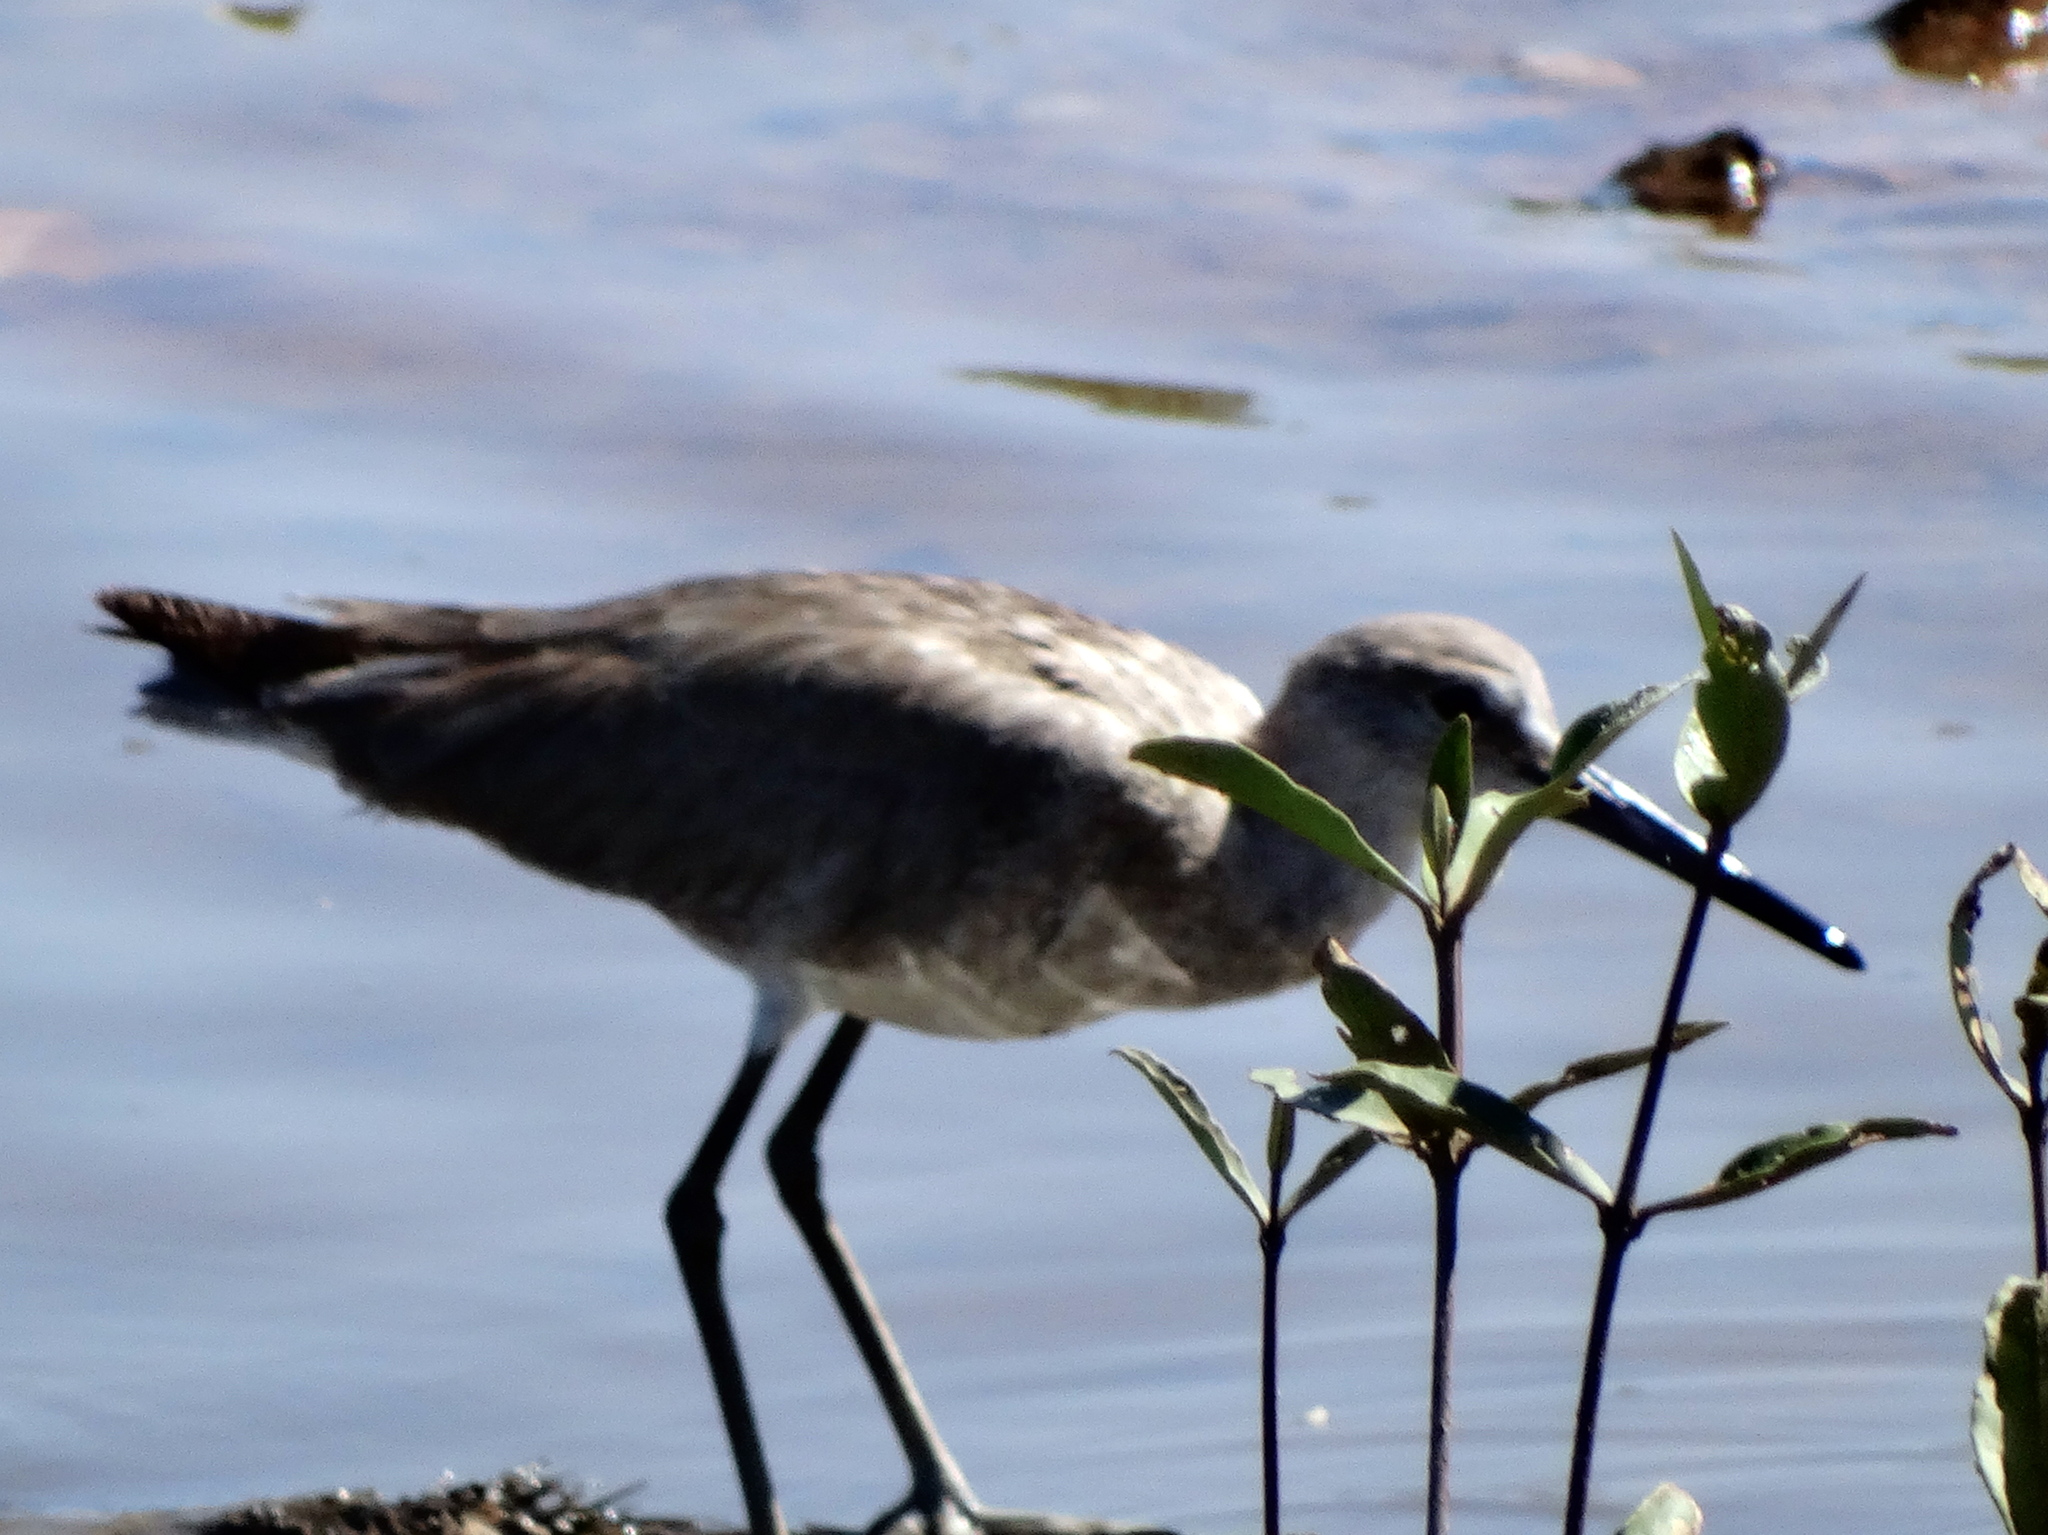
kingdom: Animalia
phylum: Chordata
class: Aves
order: Charadriiformes
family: Scolopacidae
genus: Tringa
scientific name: Tringa semipalmata
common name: Willet
